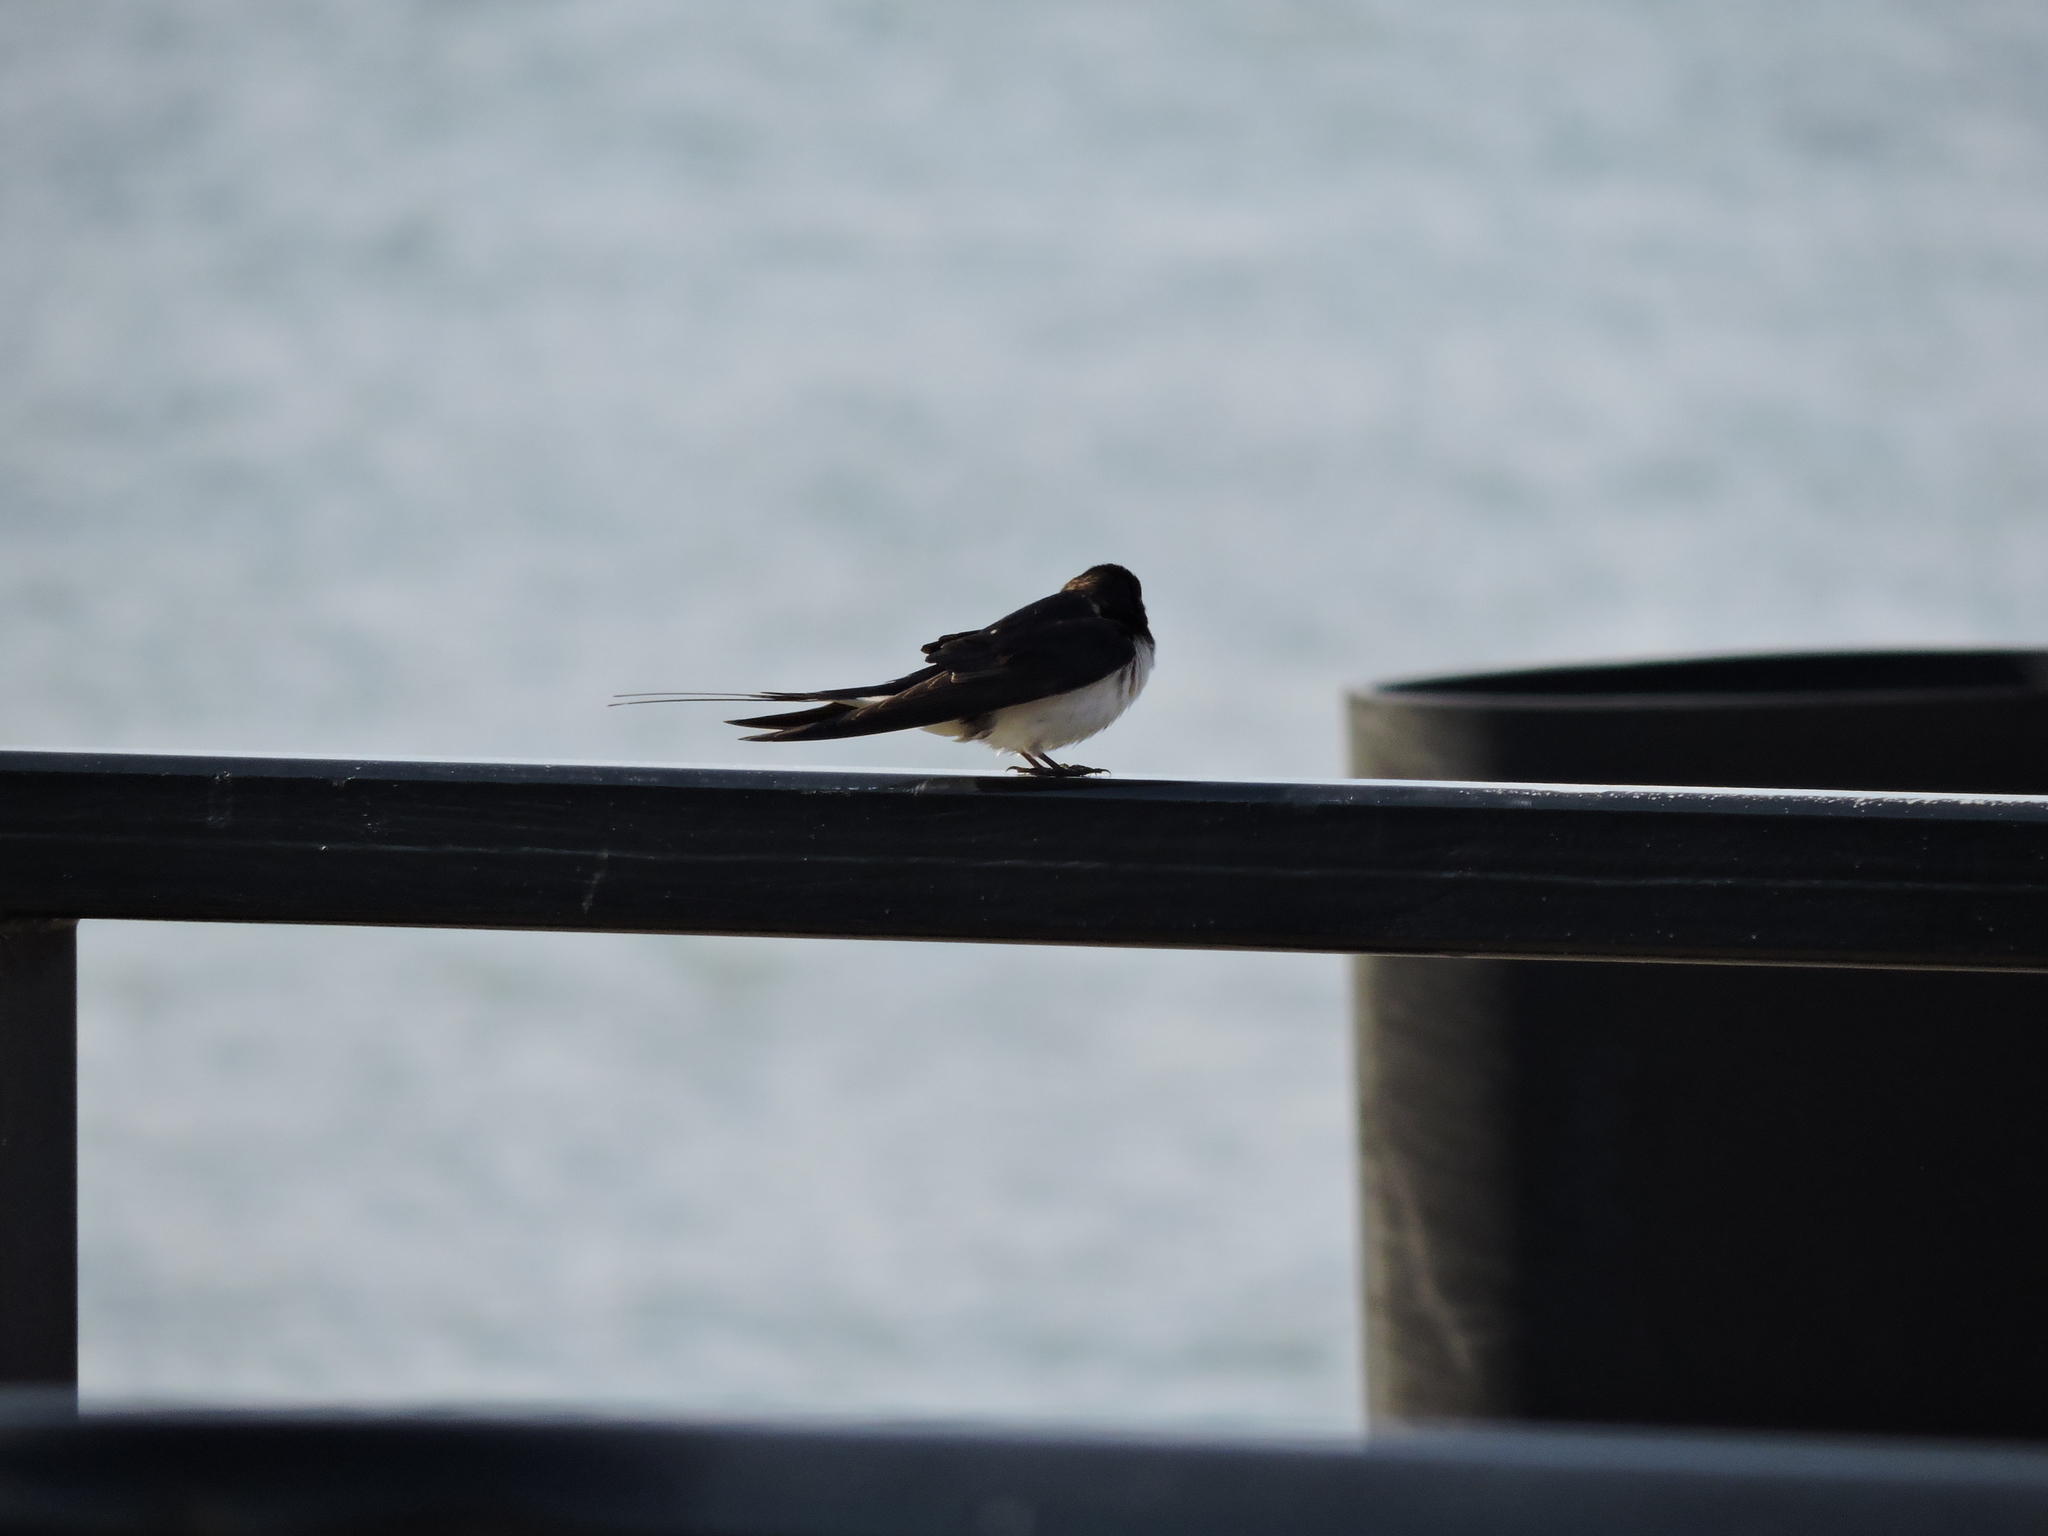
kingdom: Animalia
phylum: Chordata
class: Aves
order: Passeriformes
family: Hirundinidae
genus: Hirundo
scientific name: Hirundo rustica
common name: Barn swallow
